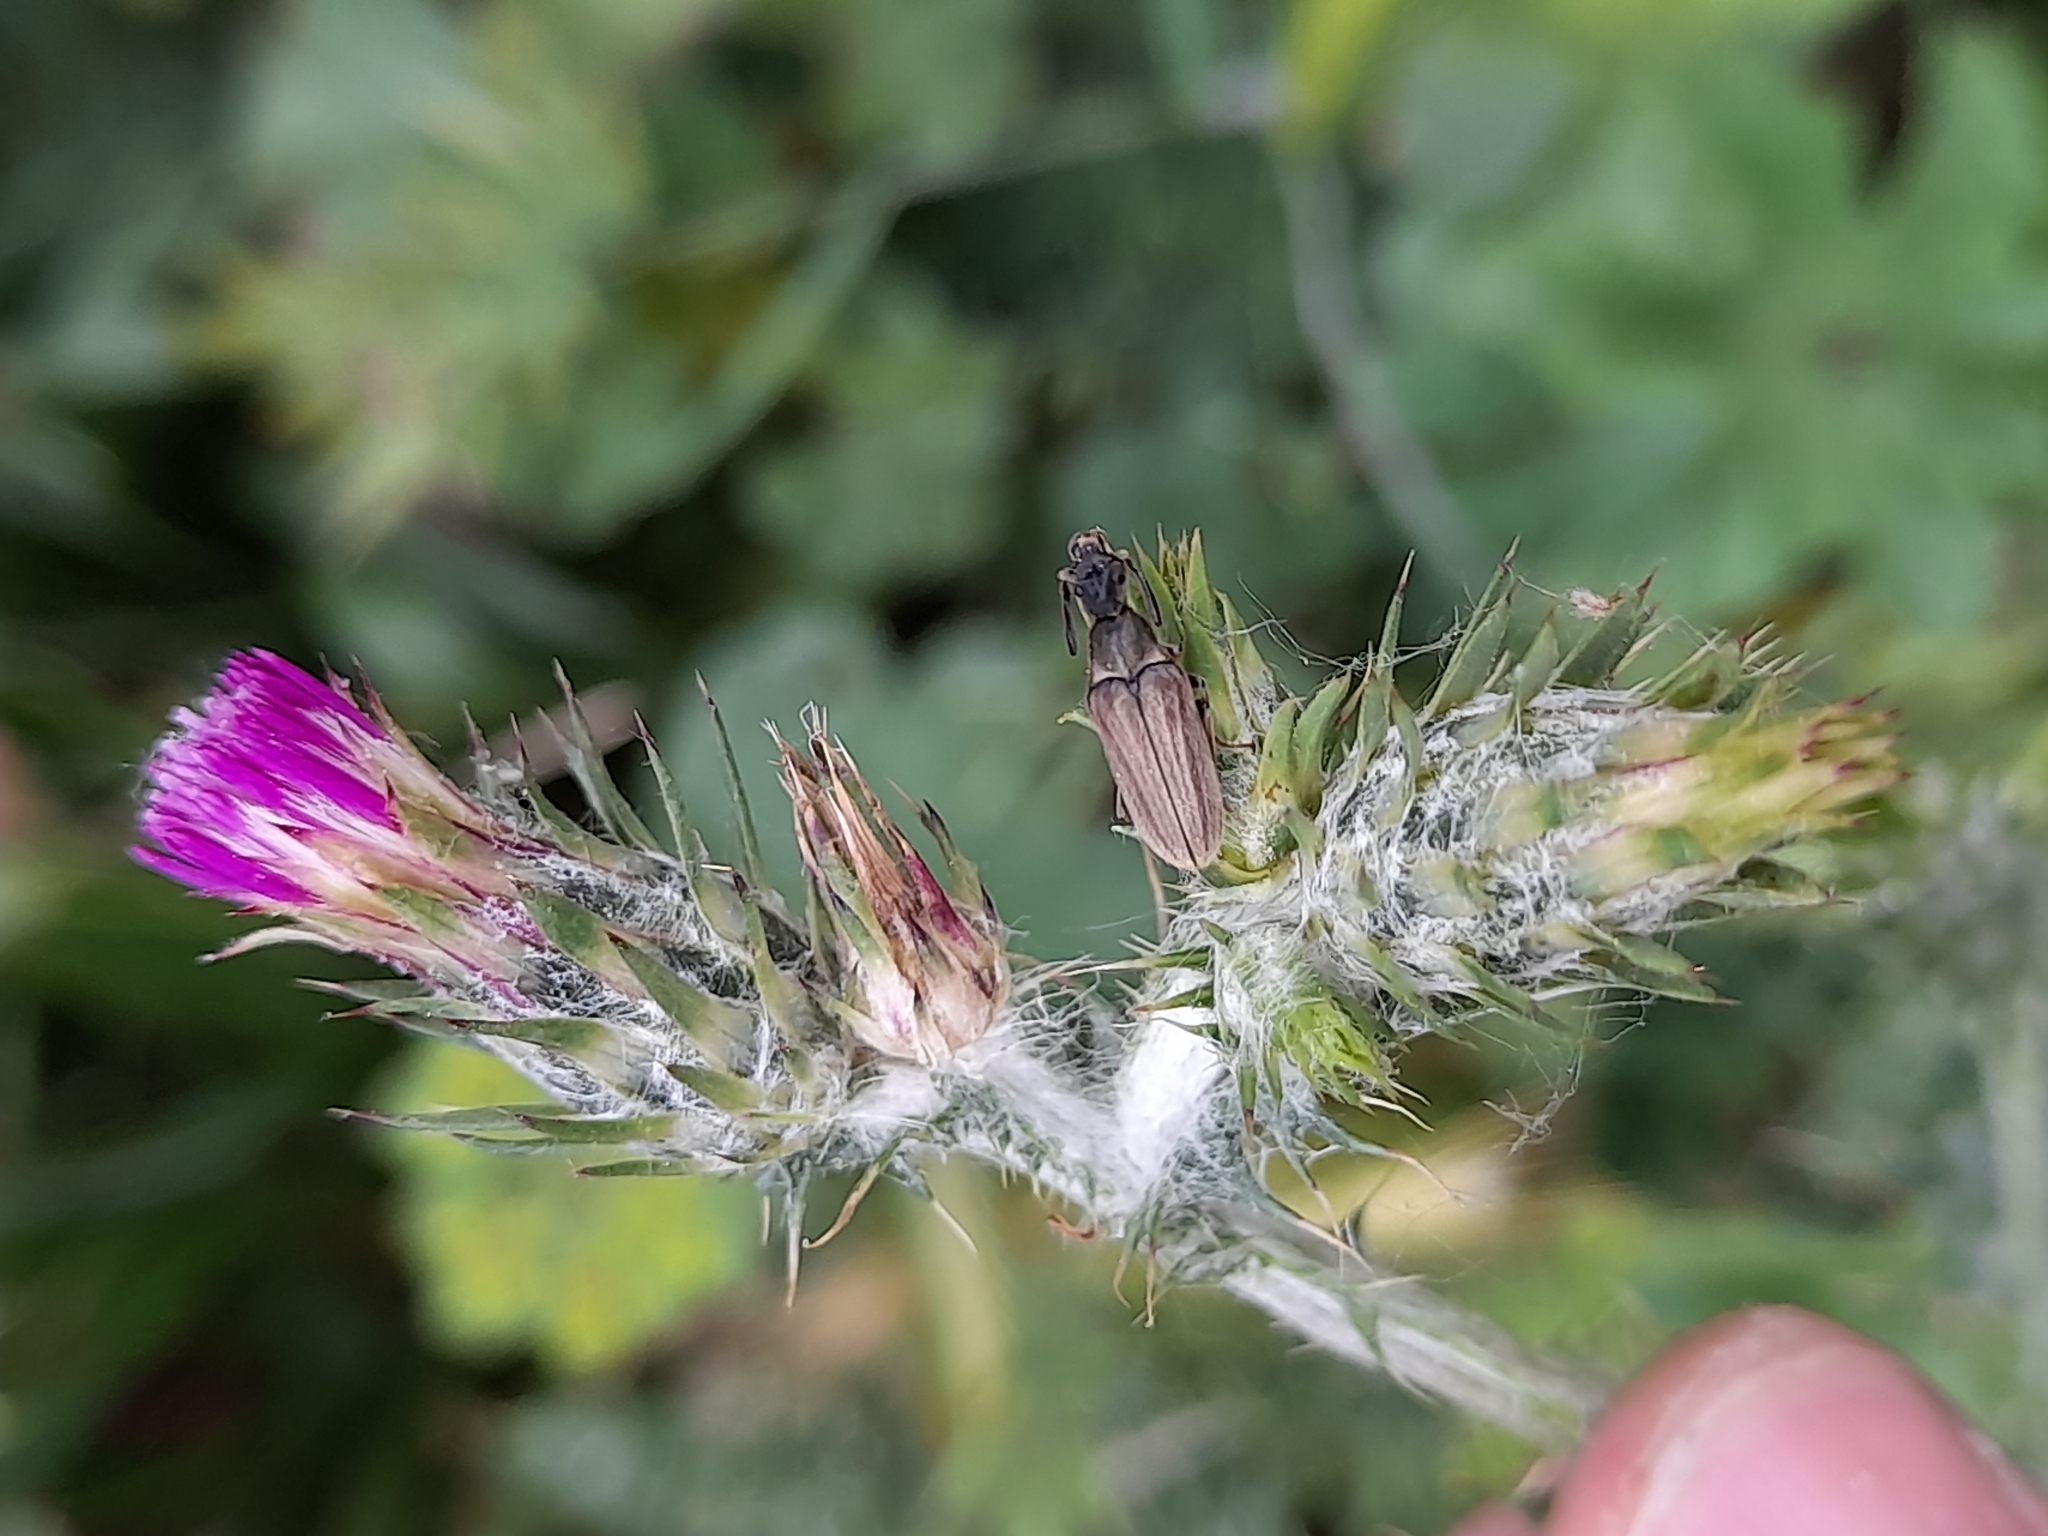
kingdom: Animalia
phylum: Arthropoda
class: Insecta
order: Coleoptera
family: Ripiphoridae
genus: Ptilophorus
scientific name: Ptilophorus dufourii
